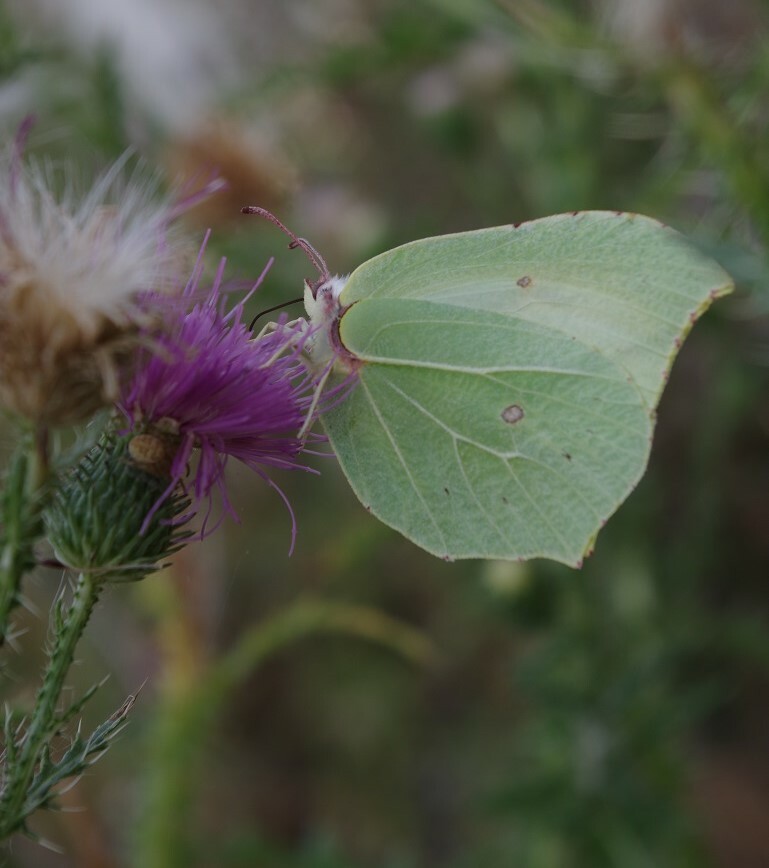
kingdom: Animalia
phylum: Arthropoda
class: Insecta
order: Lepidoptera
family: Pieridae
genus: Gonepteryx
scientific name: Gonepteryx rhamni
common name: Brimstone
